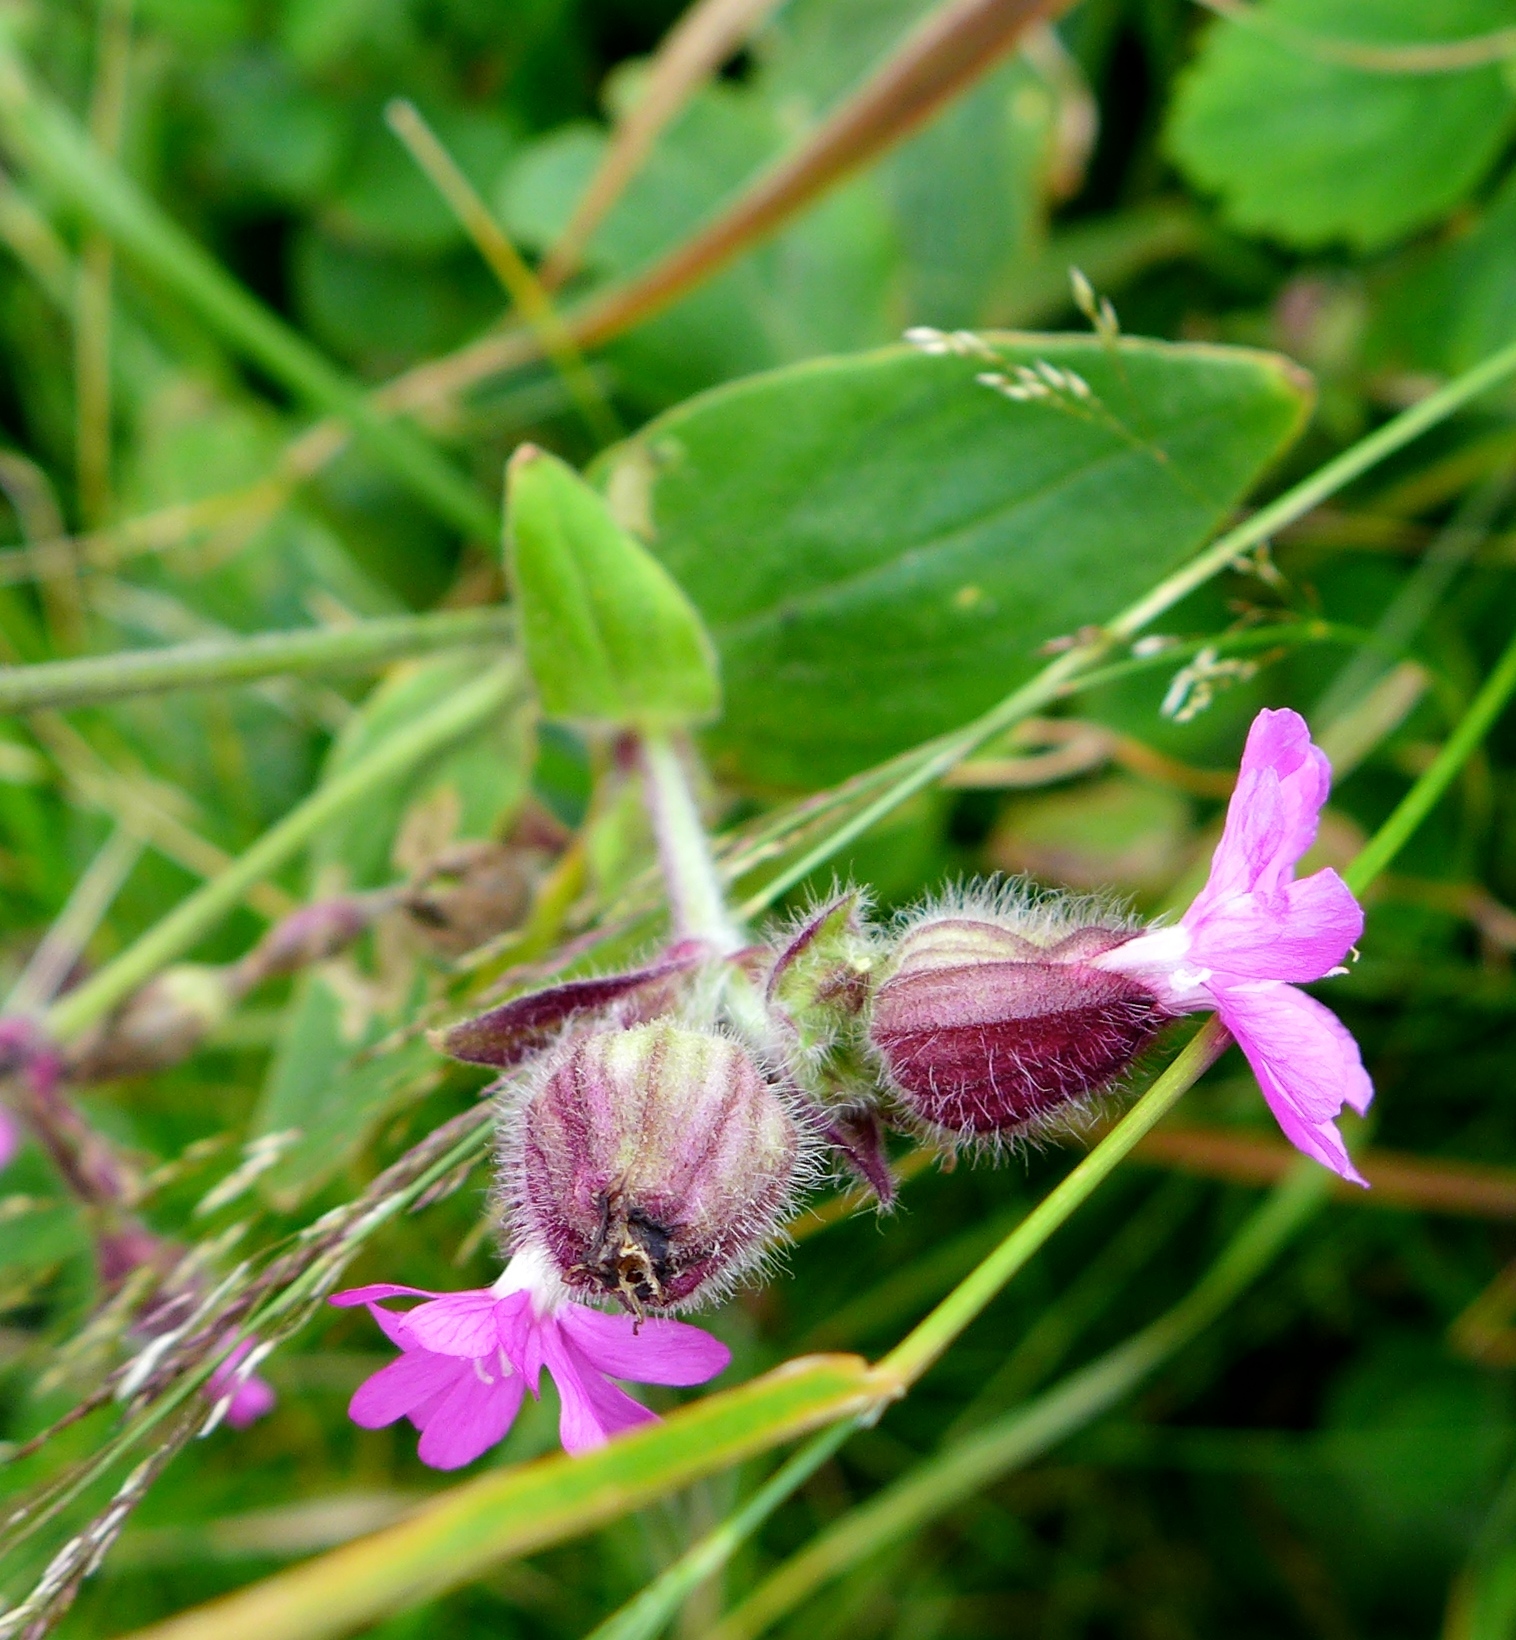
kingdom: Plantae
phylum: Tracheophyta
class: Magnoliopsida
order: Caryophyllales
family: Caryophyllaceae
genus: Silene
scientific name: Silene dioica
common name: Red campion
